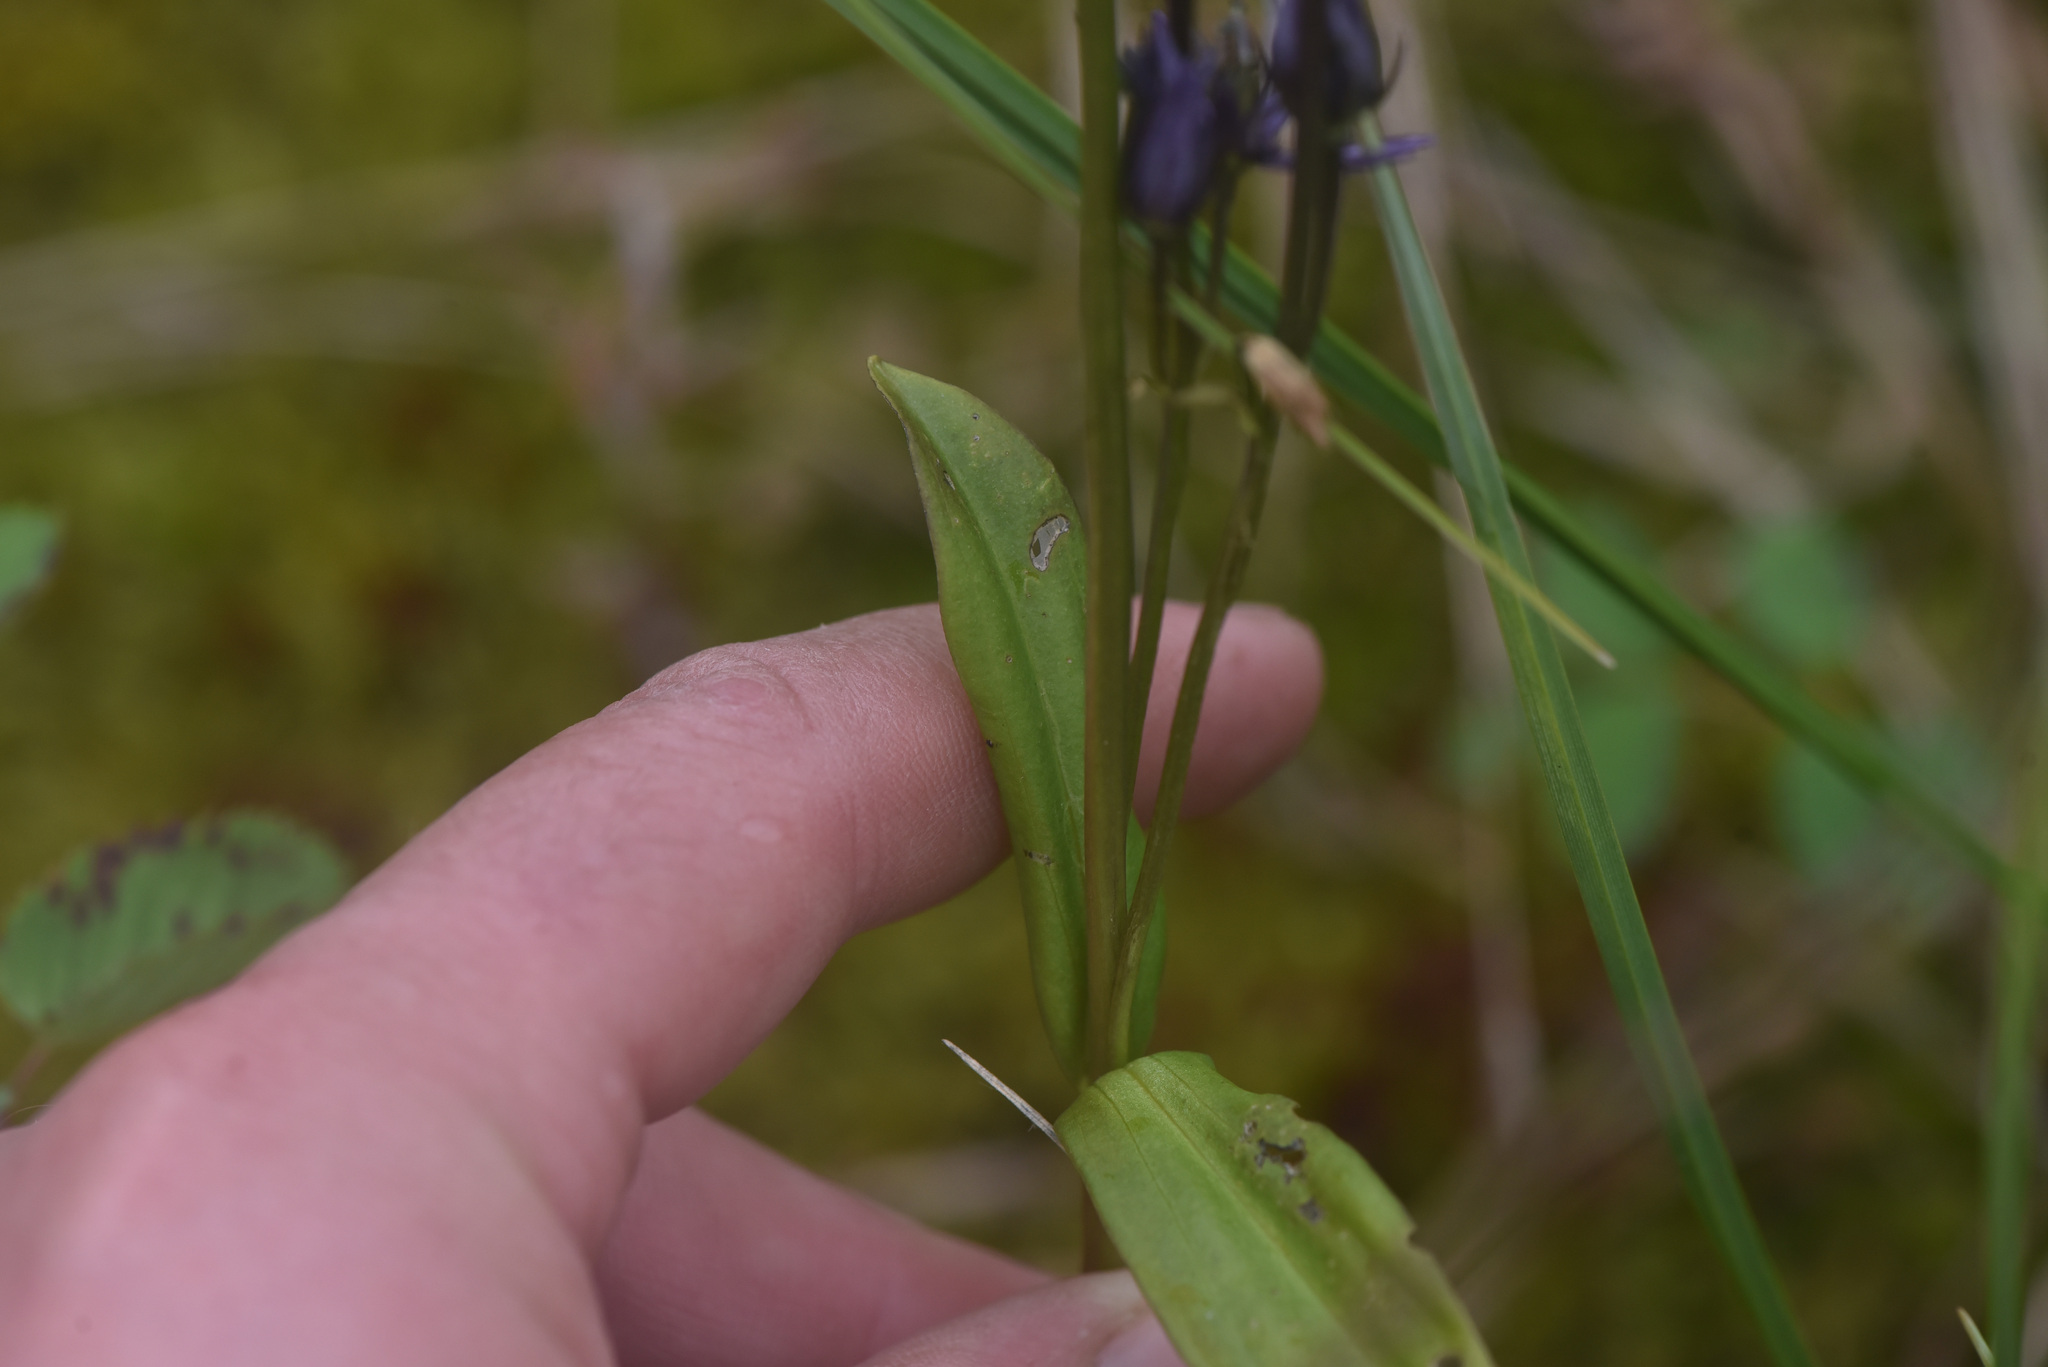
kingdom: Plantae
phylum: Tracheophyta
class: Magnoliopsida
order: Gentianales
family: Gentianaceae
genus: Swertia
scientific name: Swertia perennis
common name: Alpine bog swertia
